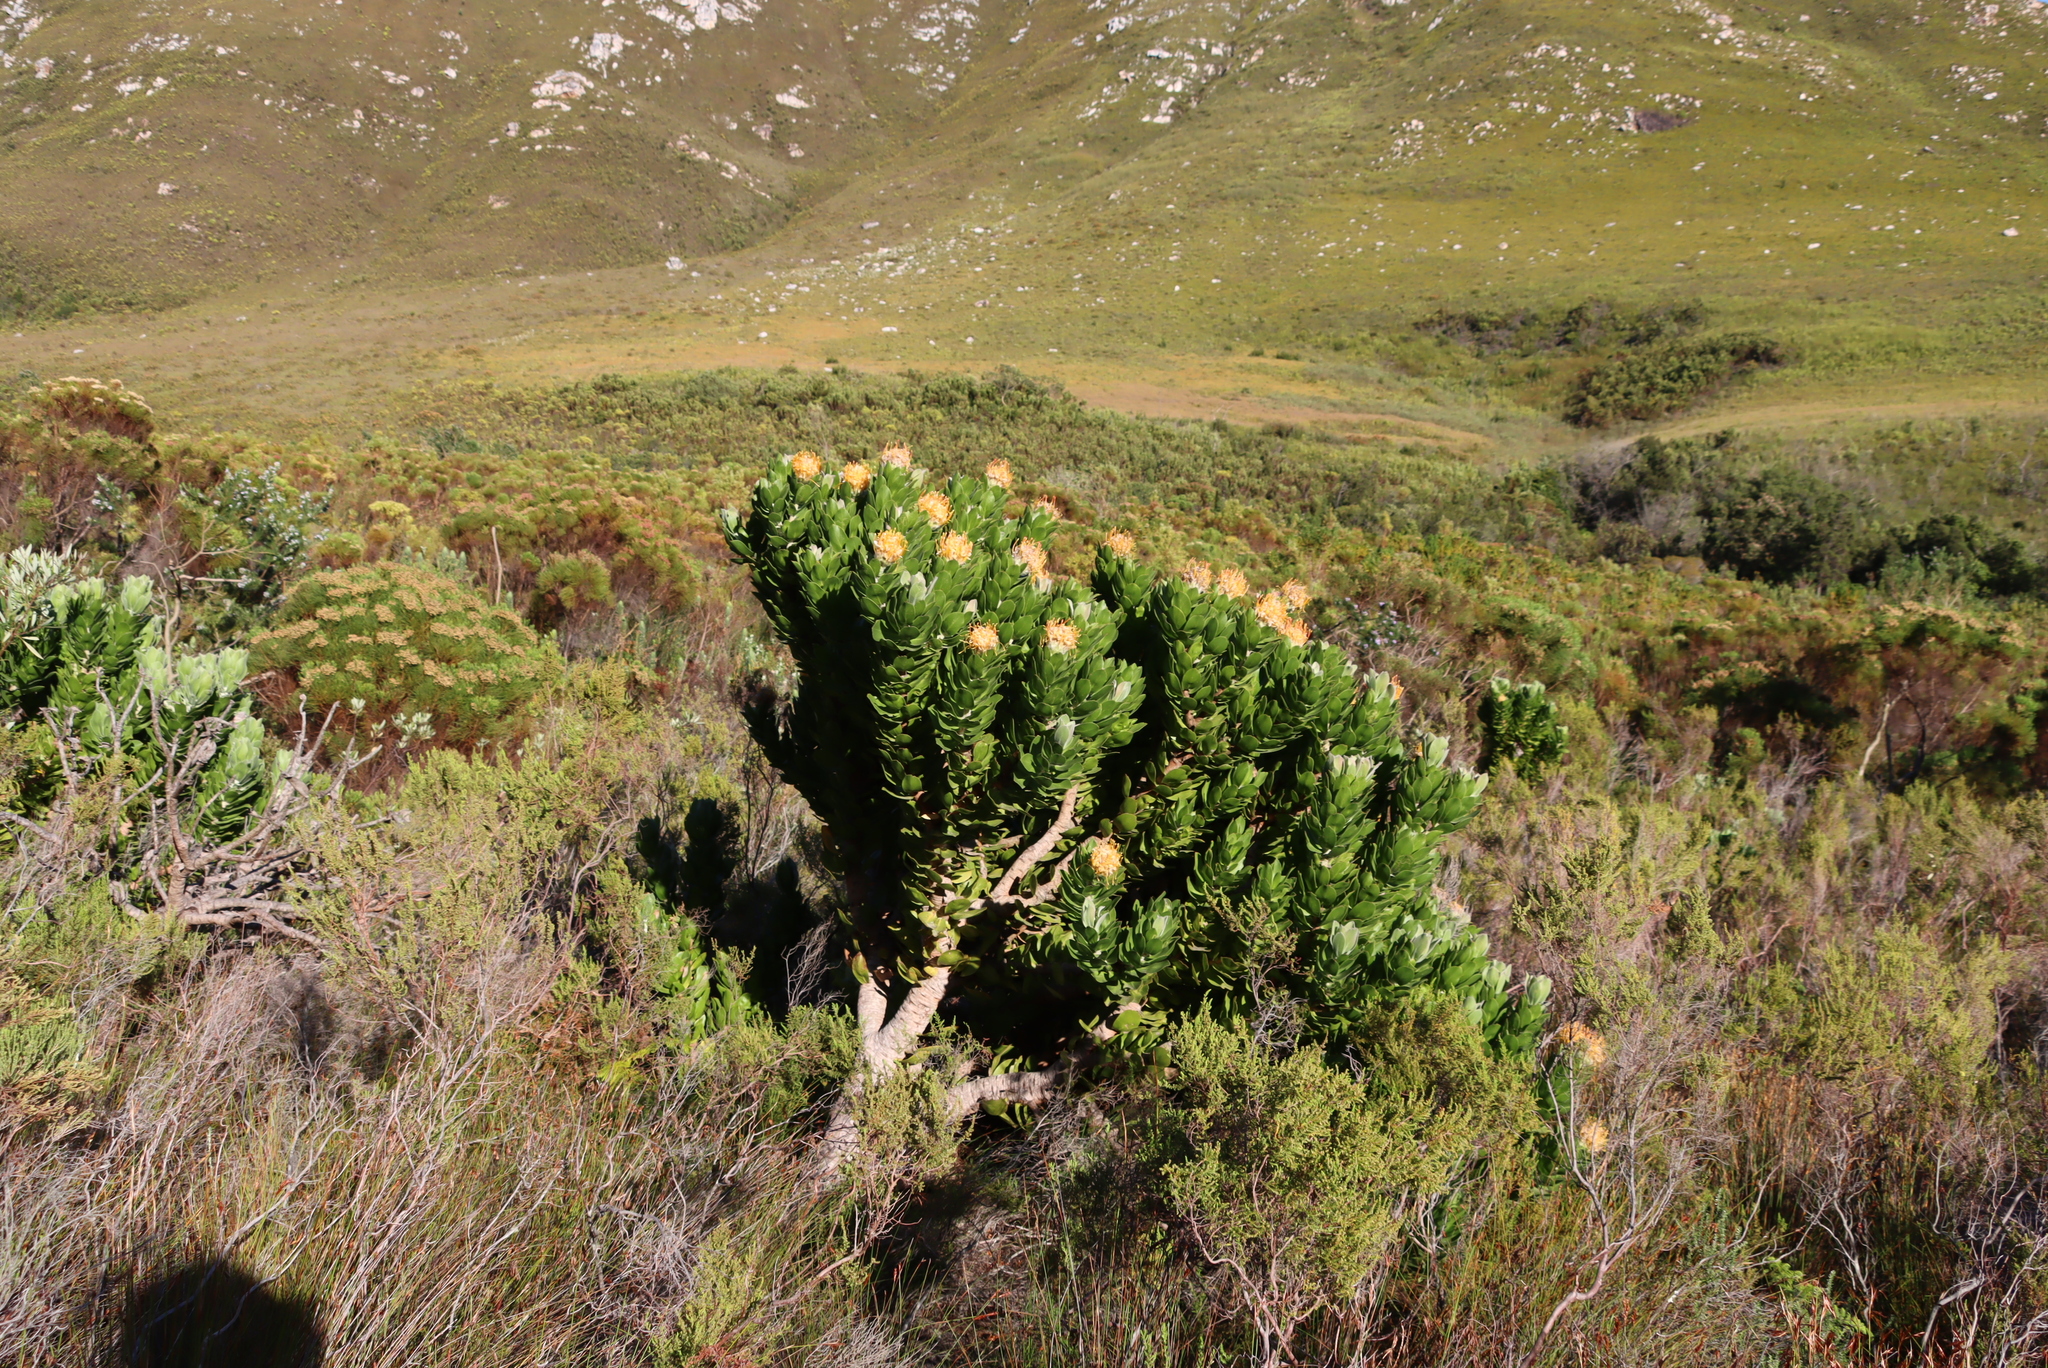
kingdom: Plantae
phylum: Tracheophyta
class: Magnoliopsida
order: Proteales
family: Proteaceae
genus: Leucospermum
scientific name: Leucospermum conocarpodendron
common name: Tree pincushion
